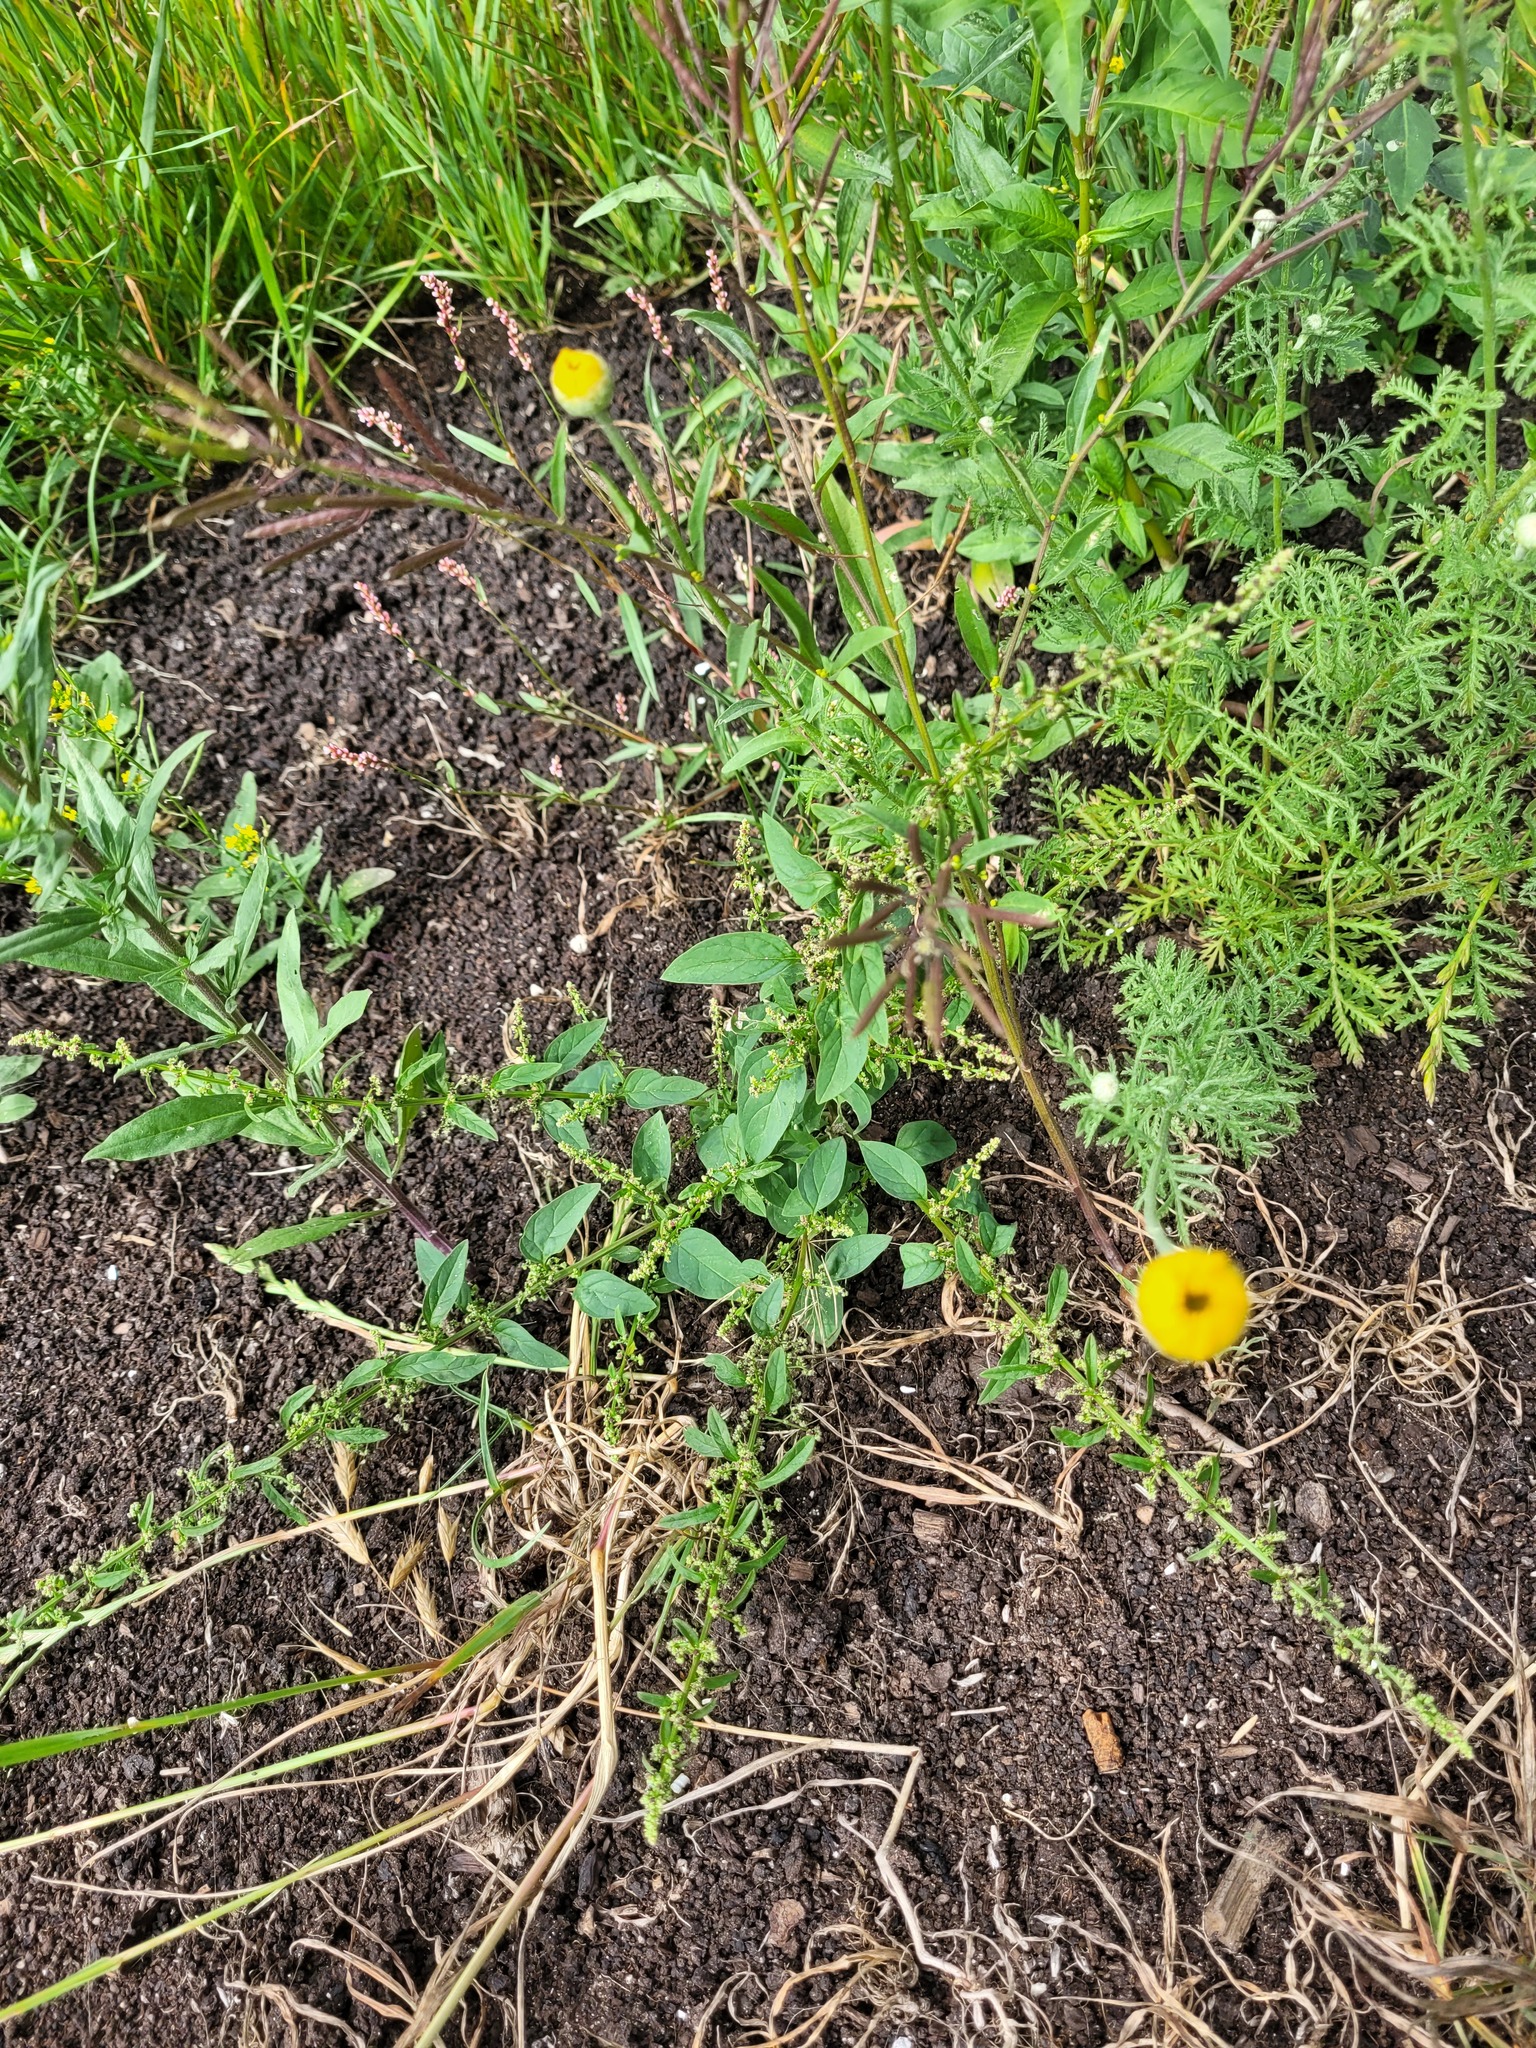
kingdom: Plantae
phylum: Tracheophyta
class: Magnoliopsida
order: Caryophyllales
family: Amaranthaceae
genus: Lipandra
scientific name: Lipandra polysperma
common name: Many-seed goosefoot
